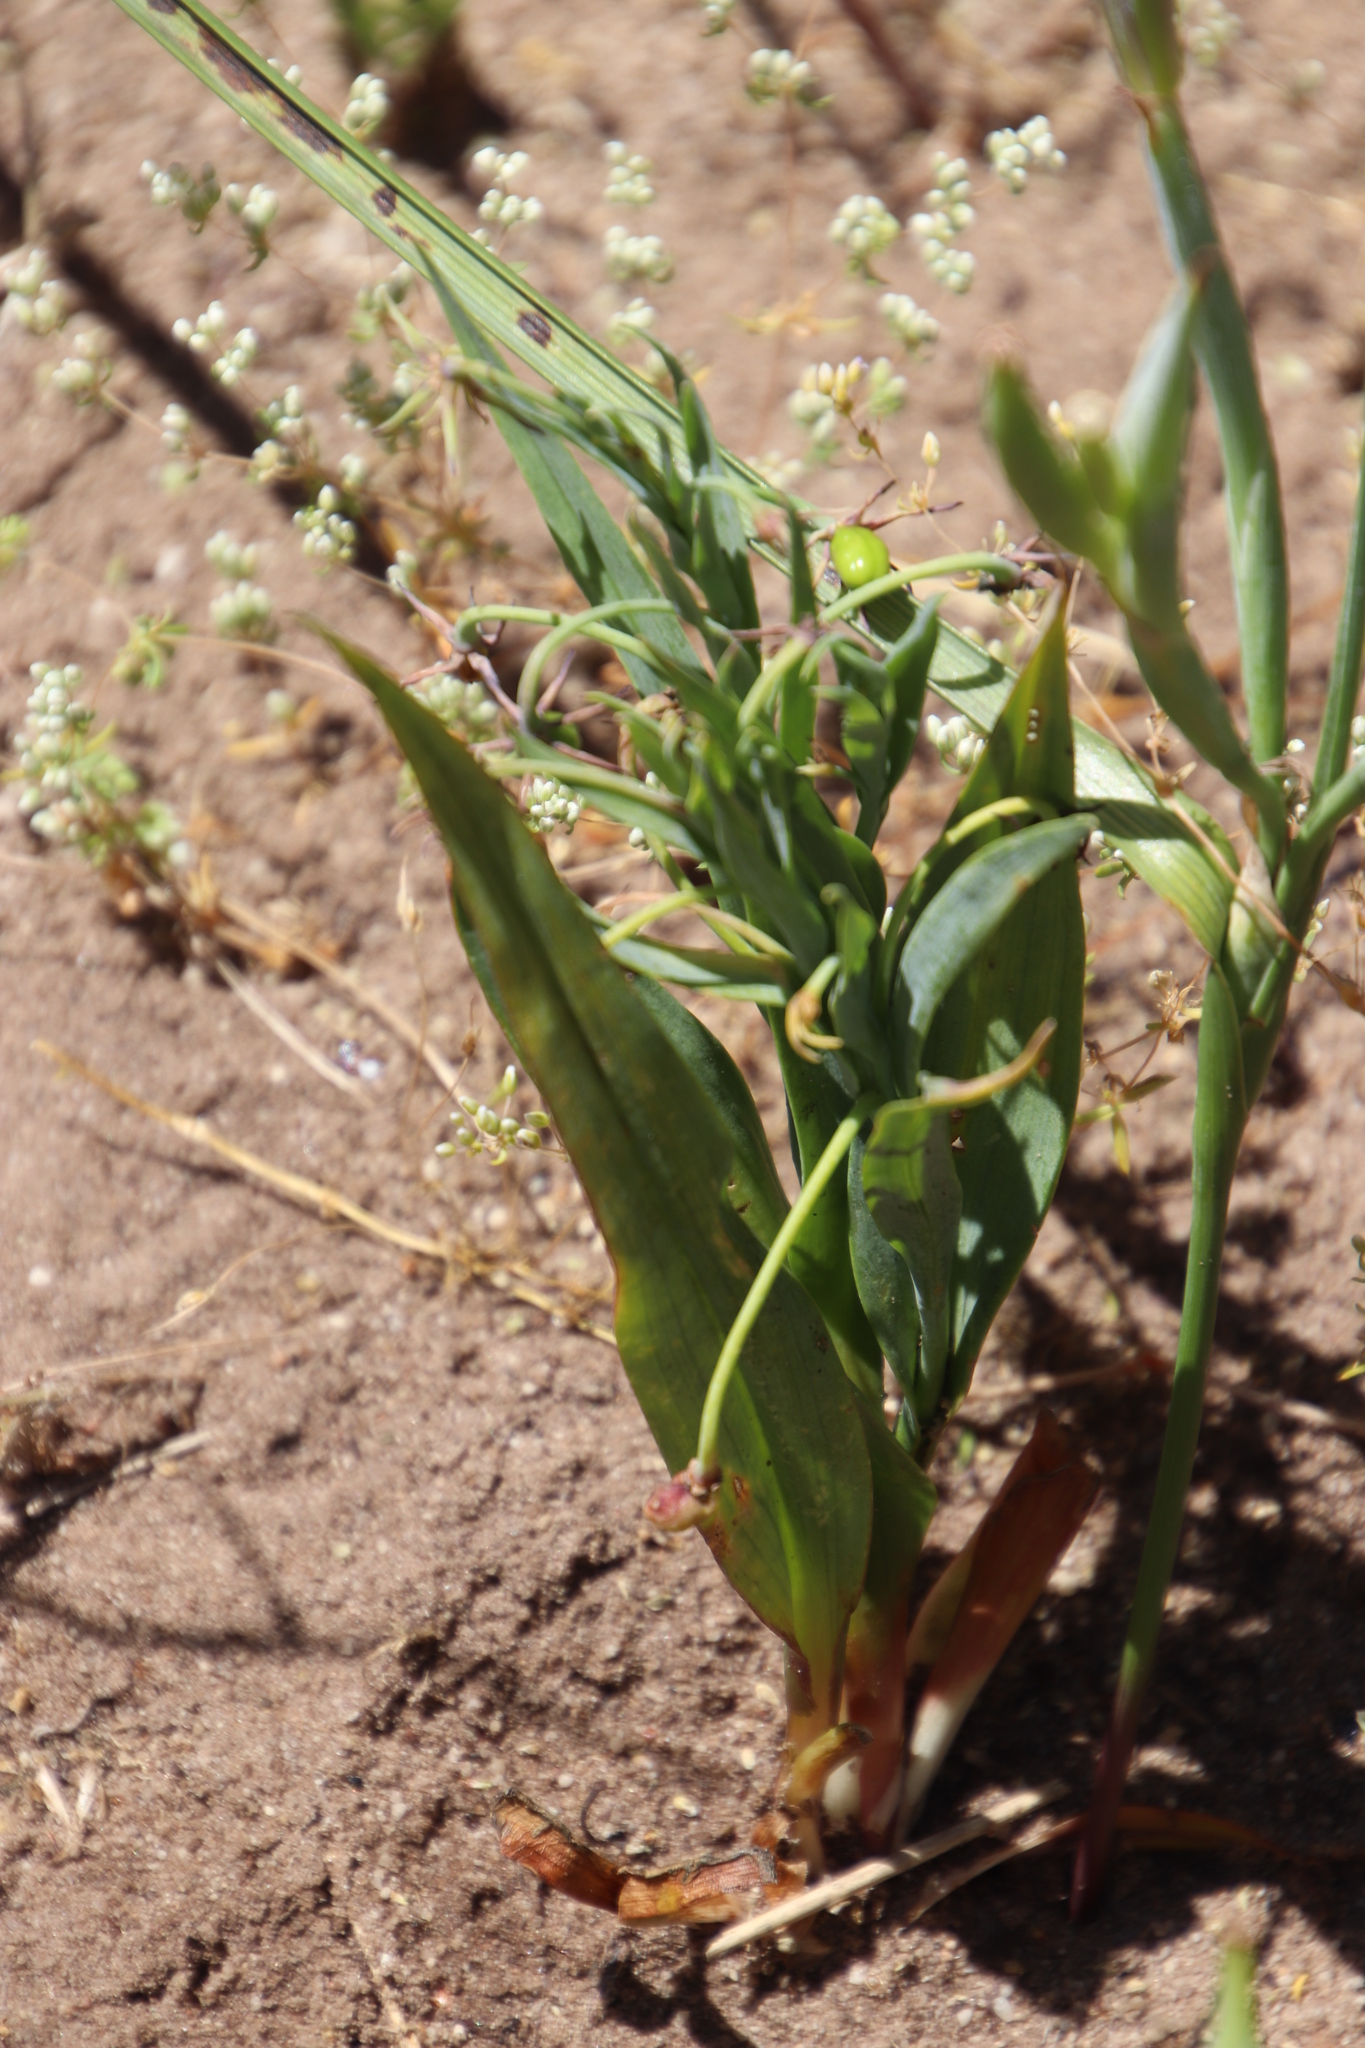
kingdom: Plantae
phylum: Tracheophyta
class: Liliopsida
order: Liliales
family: Colchicaceae
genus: Ornithoglossum
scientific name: Ornithoglossum viride
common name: Cape poison-onion
